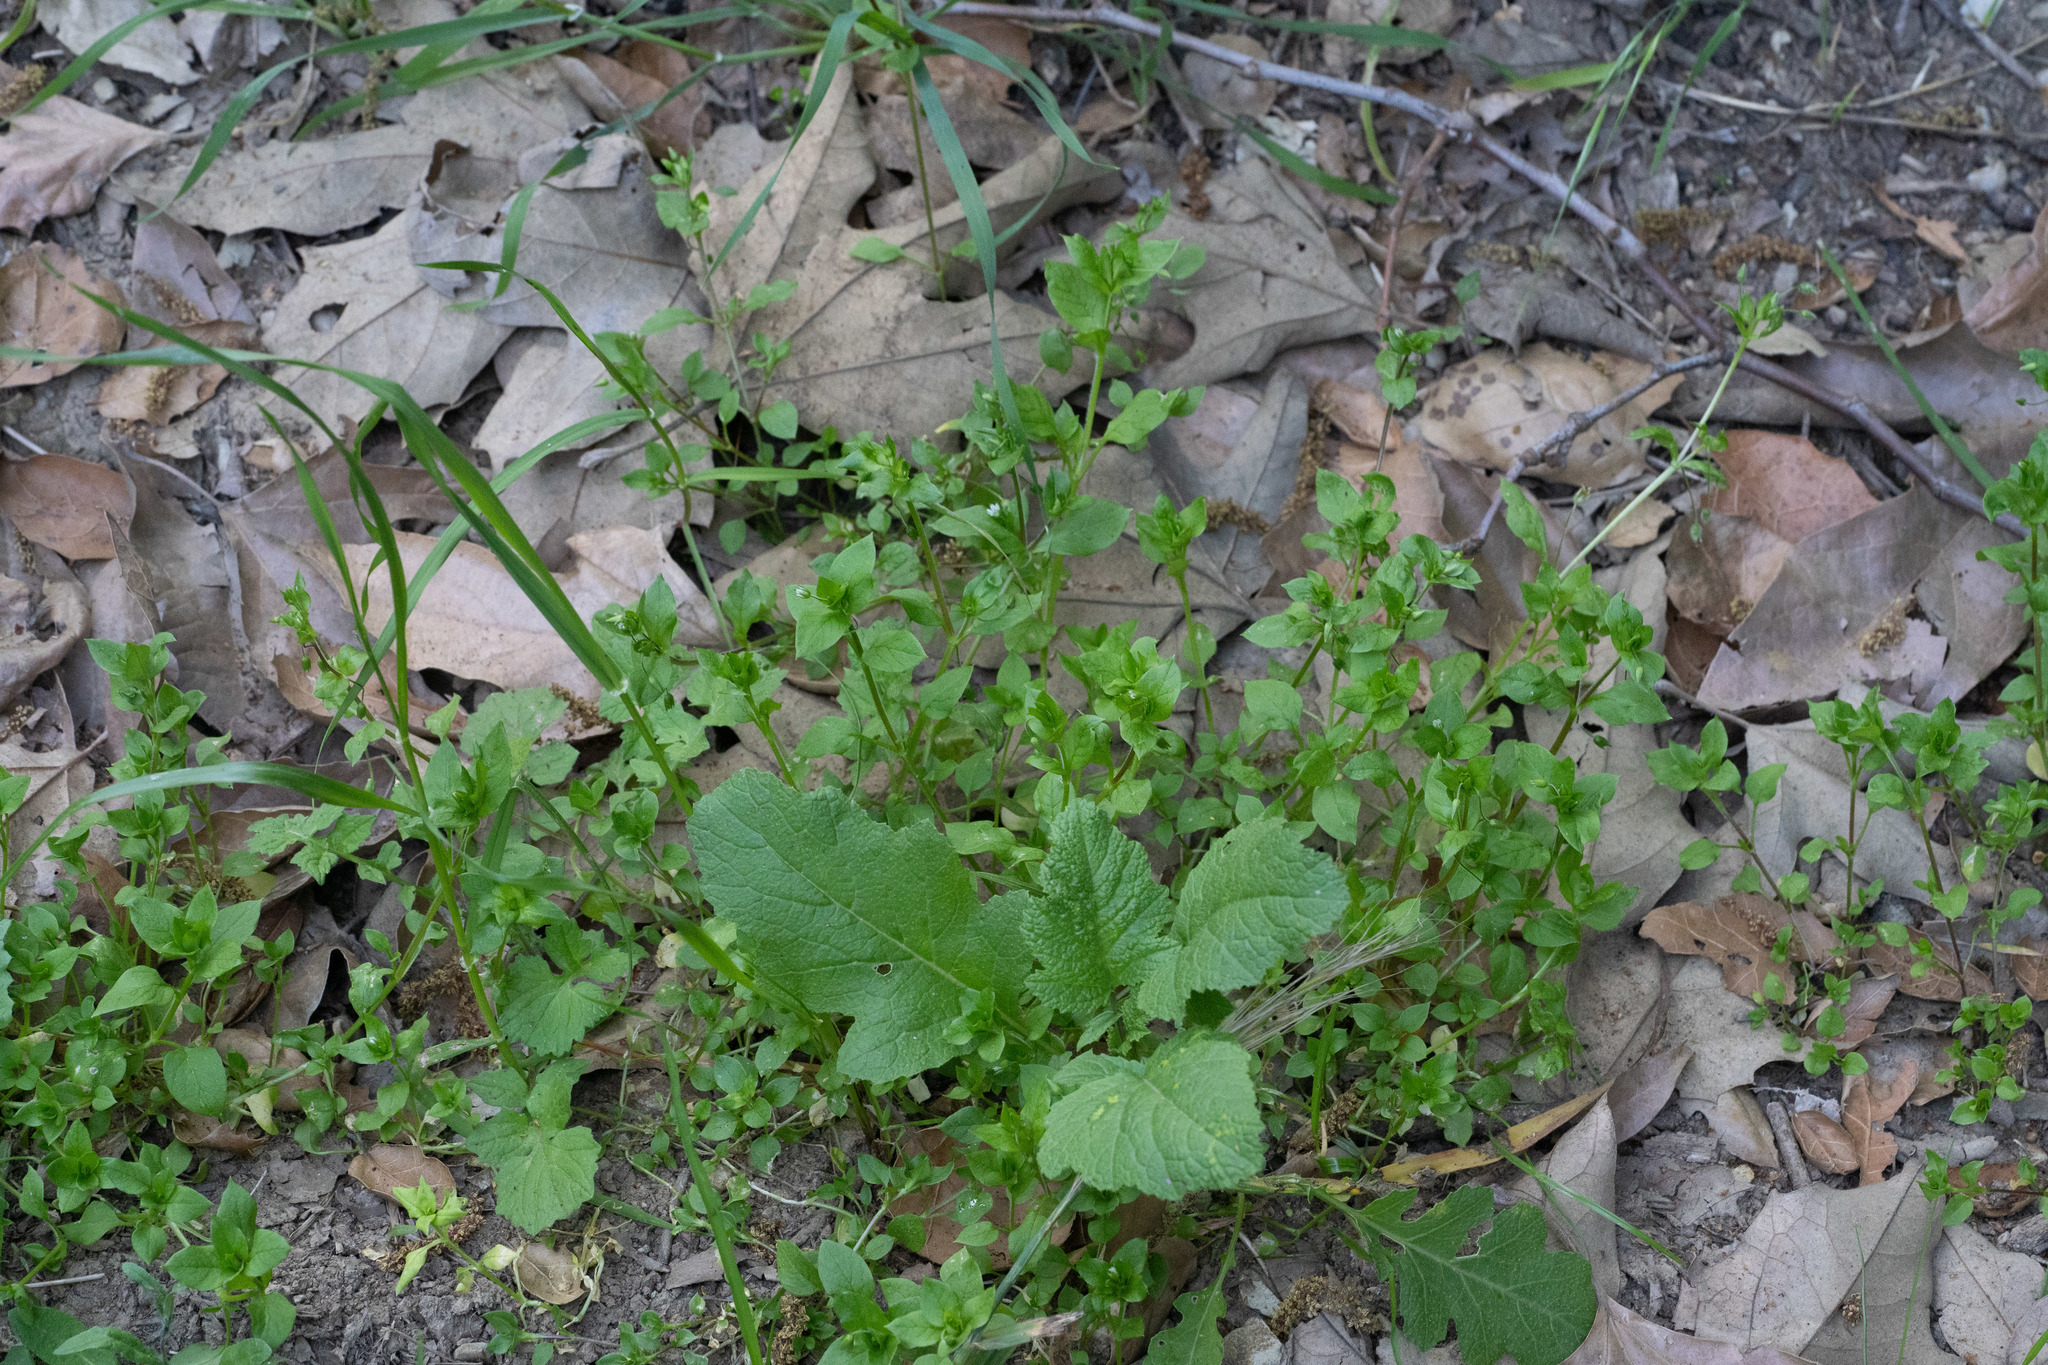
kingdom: Plantae
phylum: Tracheophyta
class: Magnoliopsida
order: Caryophyllales
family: Caryophyllaceae
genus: Stellaria
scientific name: Stellaria media
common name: Common chickweed
